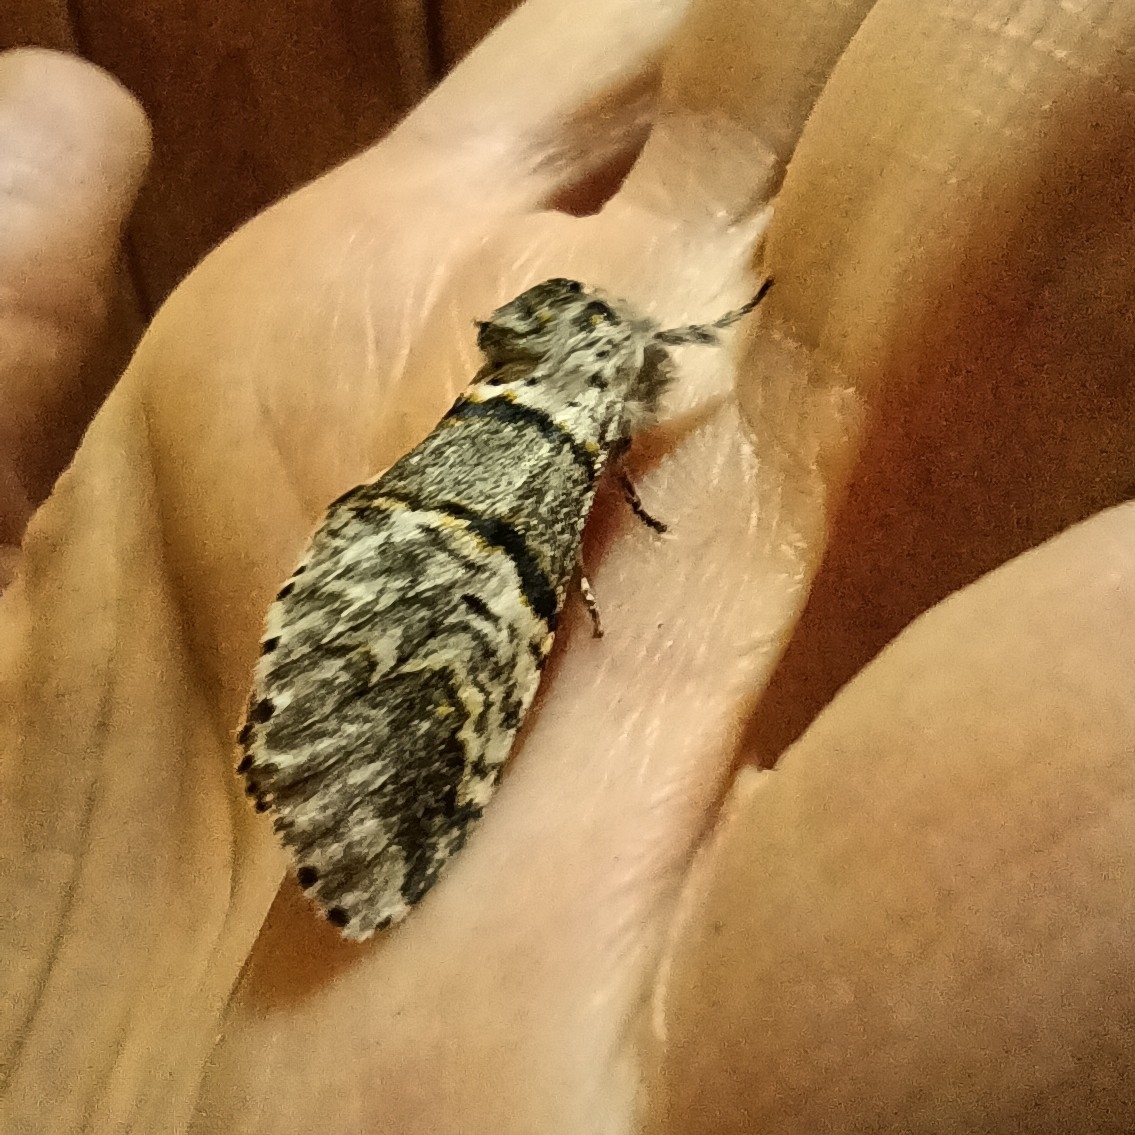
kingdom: Animalia
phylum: Arthropoda
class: Insecta
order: Lepidoptera
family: Notodontidae
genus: Furcula
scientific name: Furcula bifida
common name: Poplar kitten
